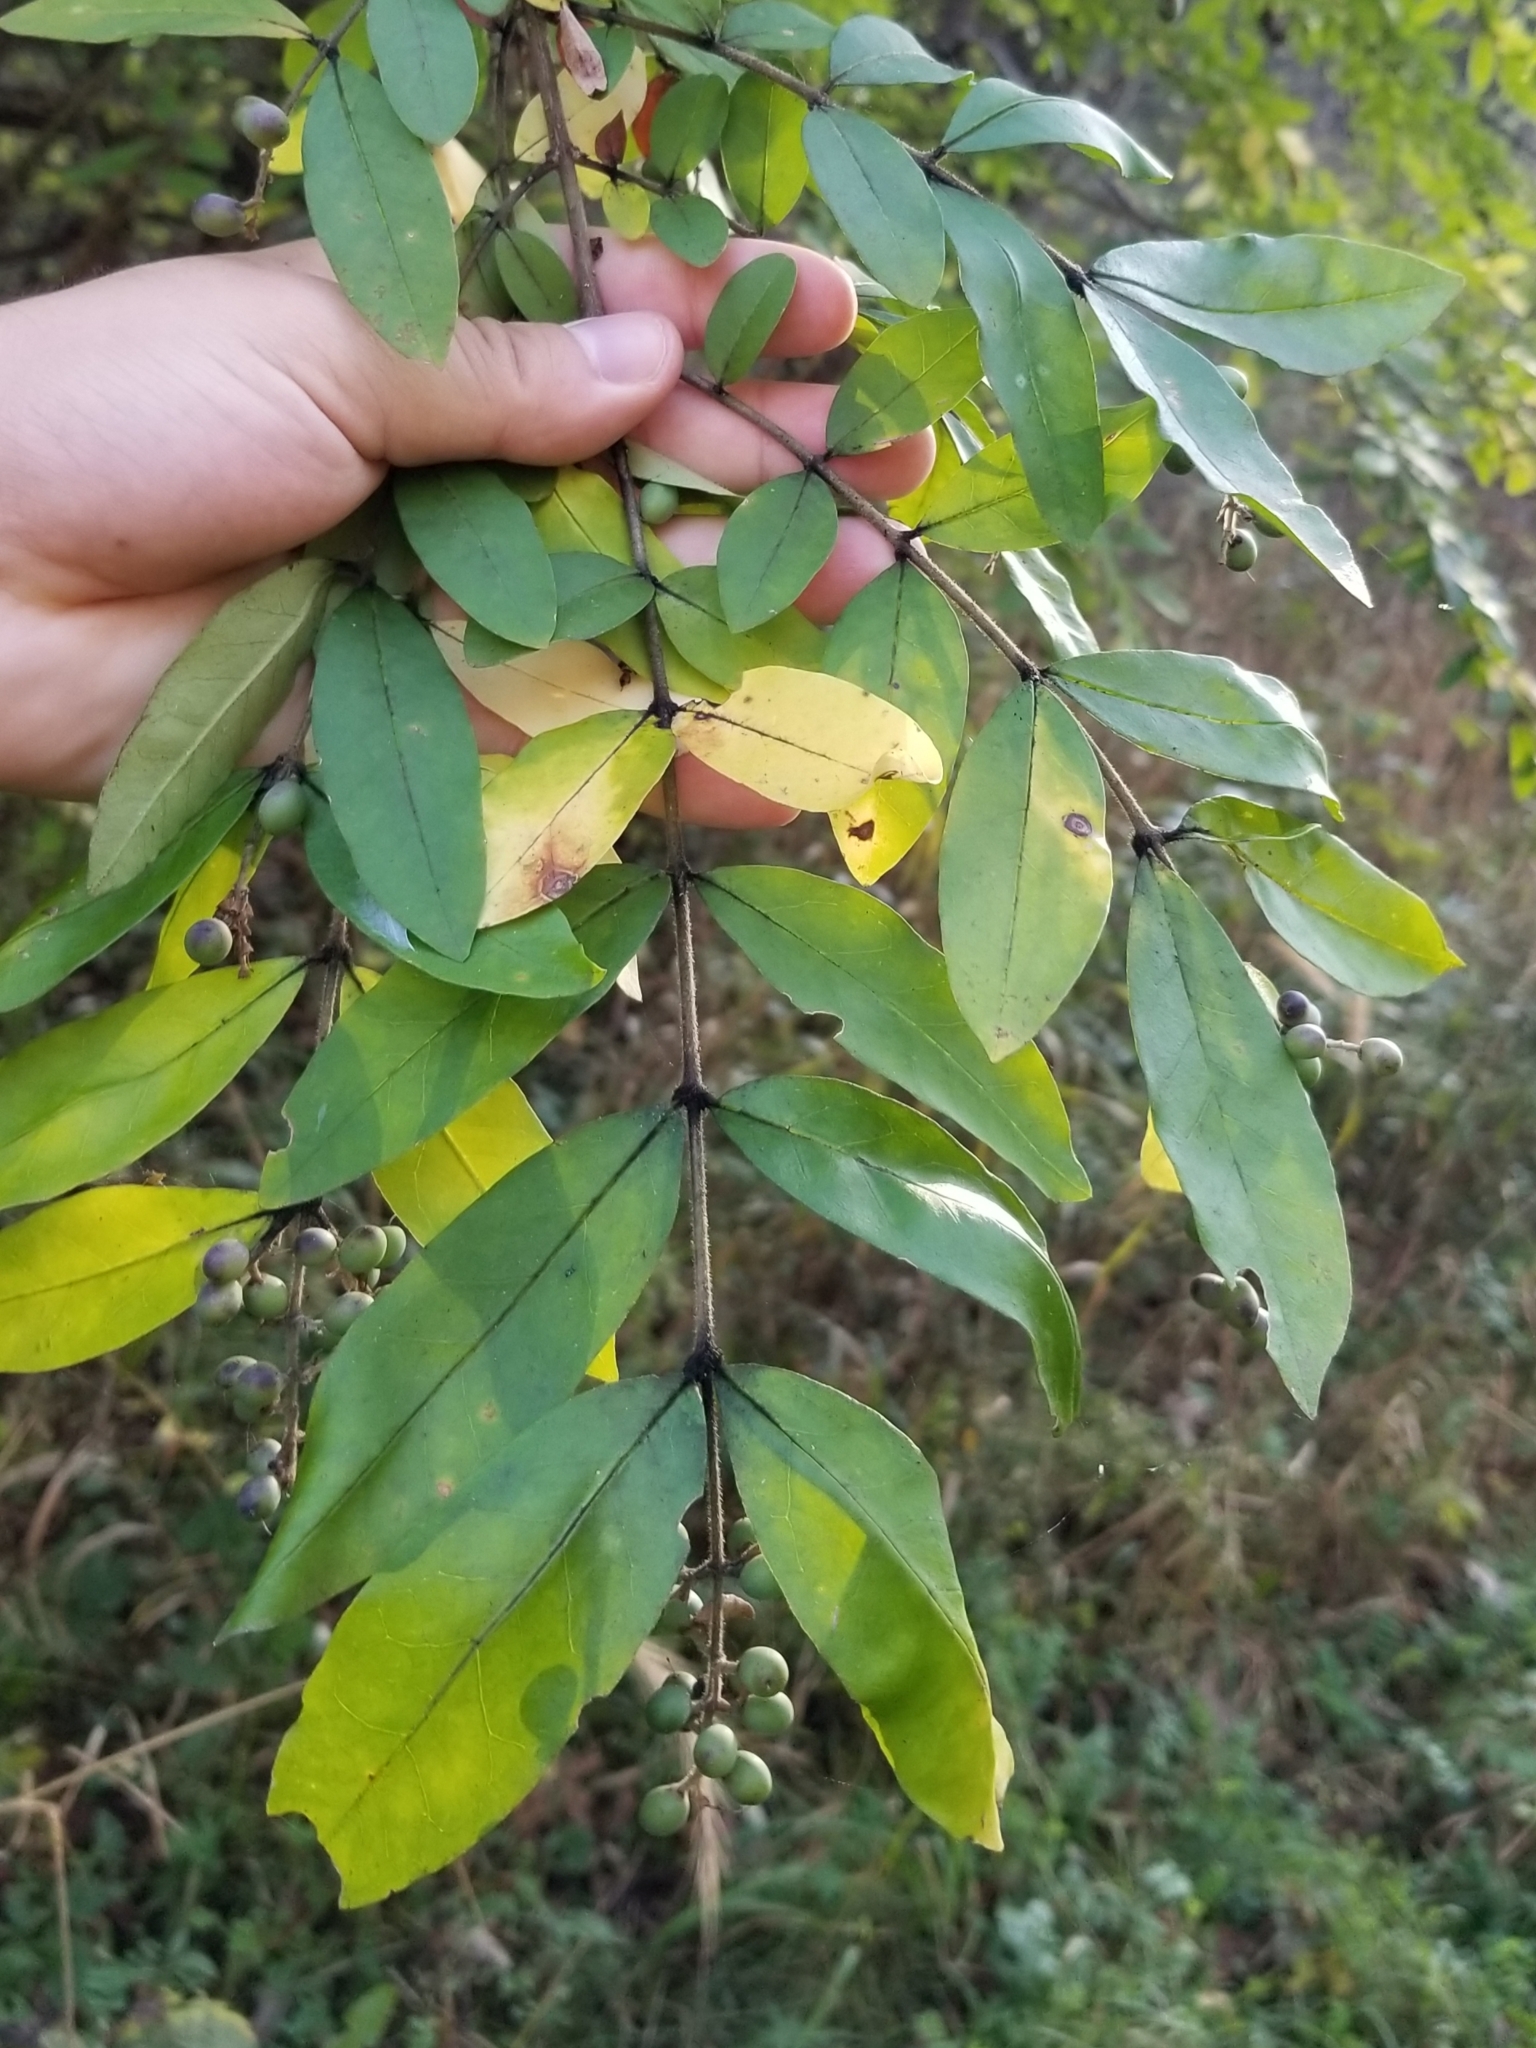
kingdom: Plantae
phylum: Tracheophyta
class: Magnoliopsida
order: Lamiales
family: Oleaceae
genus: Ligustrum
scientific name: Ligustrum obtusifolium
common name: Border privet
